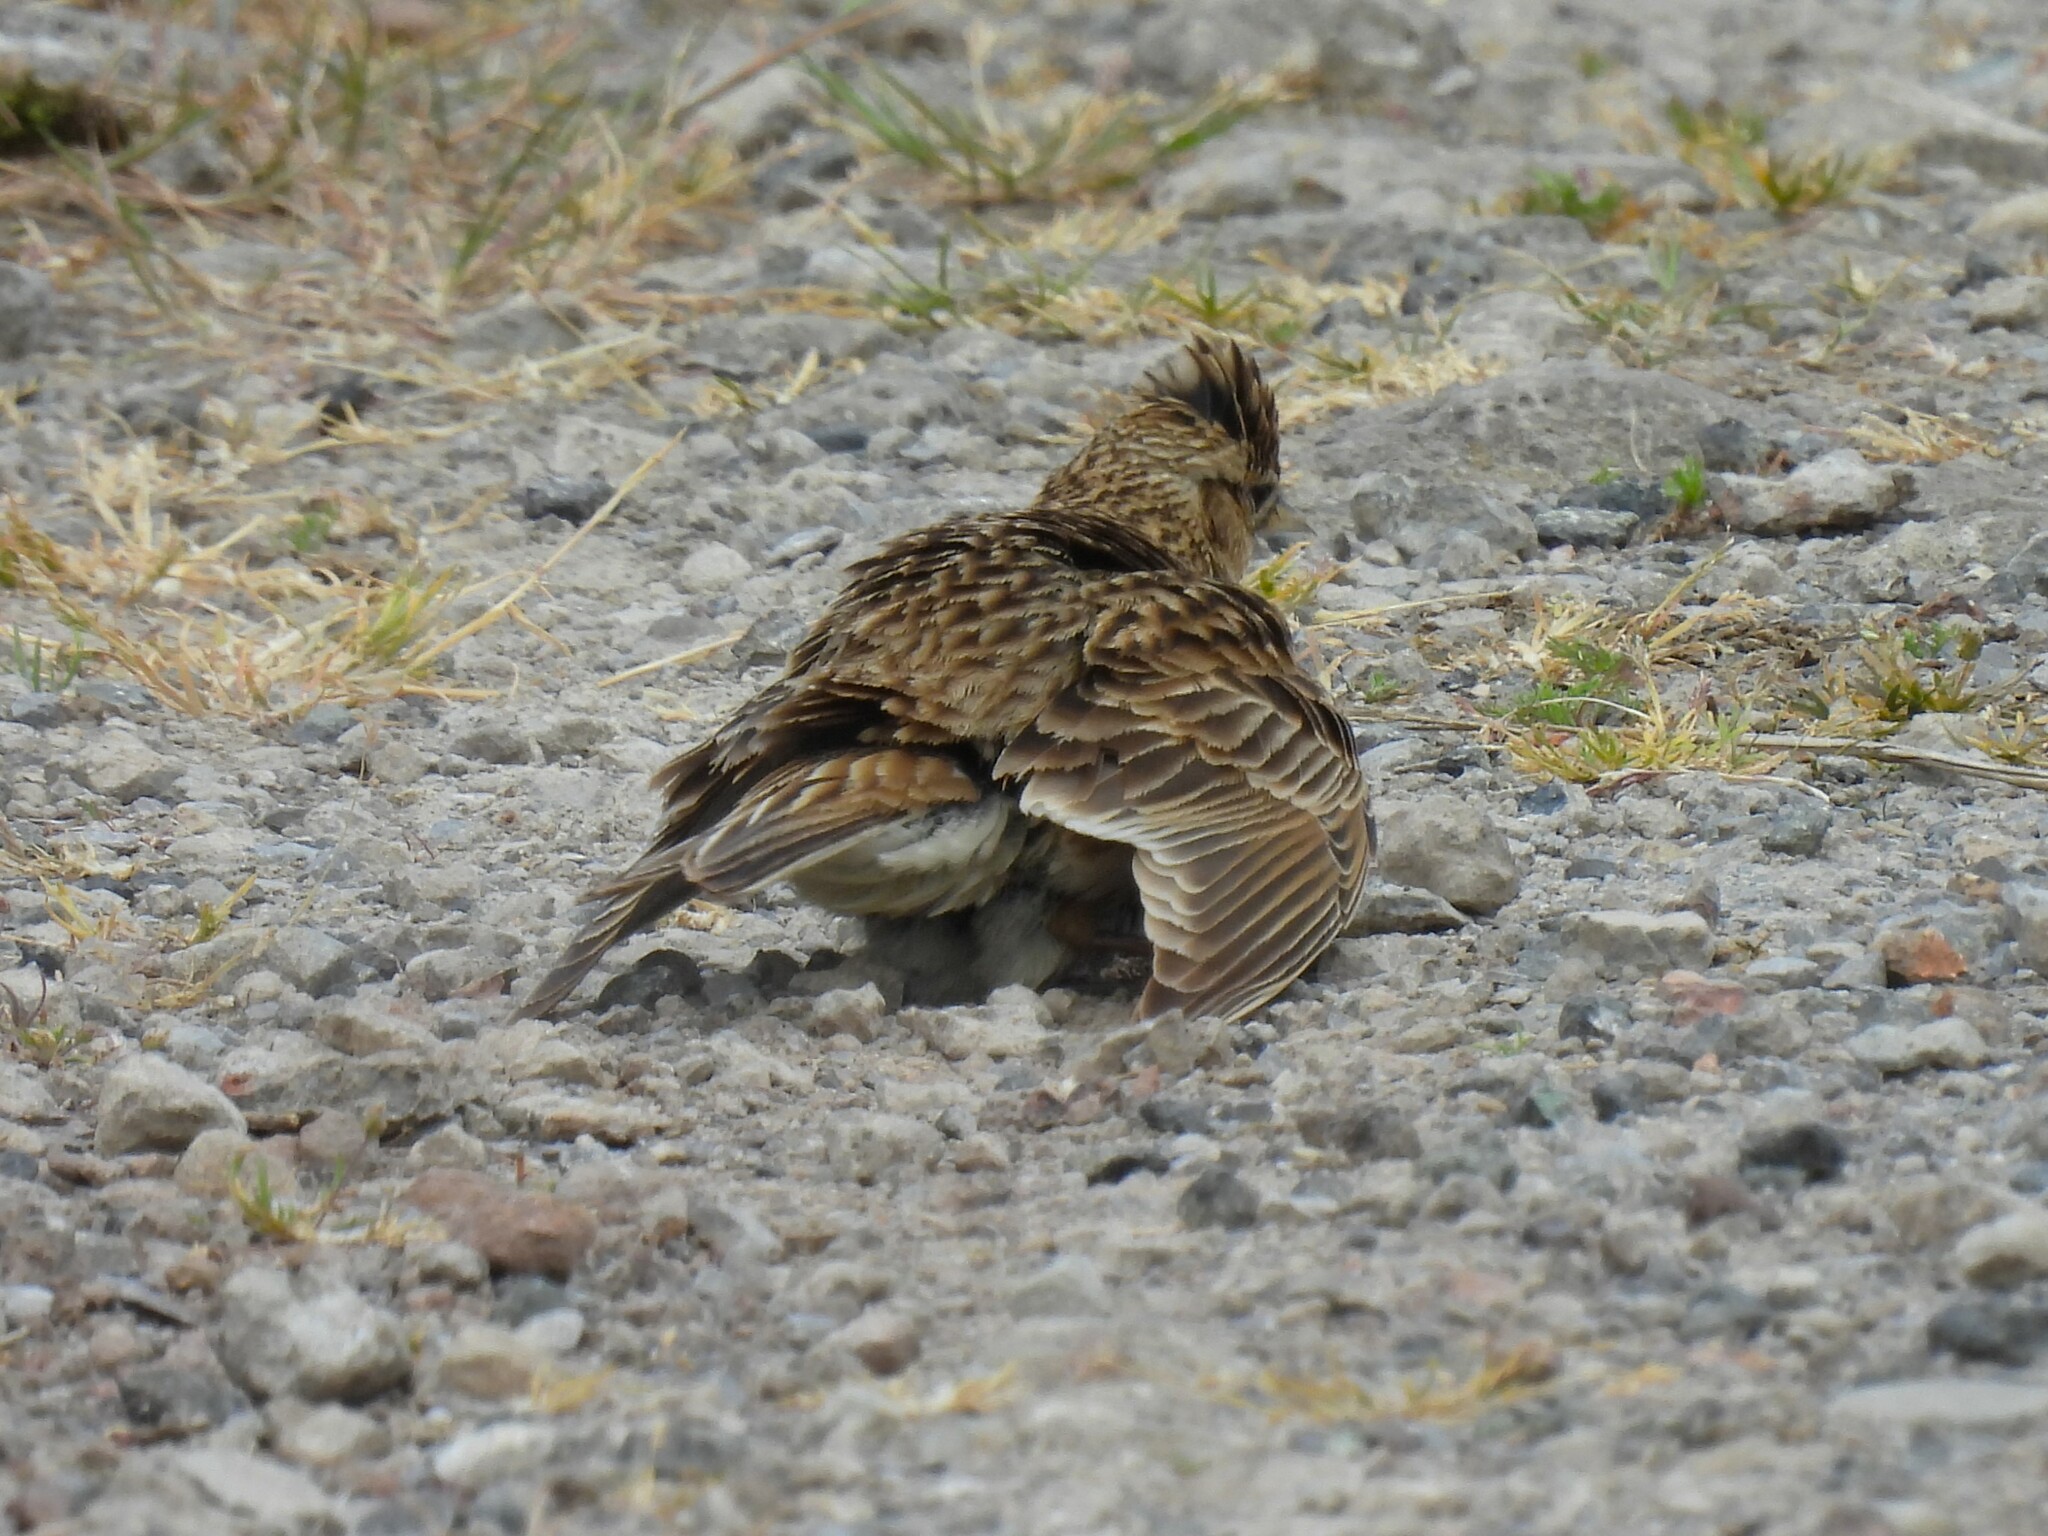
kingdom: Animalia
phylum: Chordata
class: Aves
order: Passeriformes
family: Alaudidae
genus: Alauda
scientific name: Alauda arvensis
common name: Eurasian skylark
